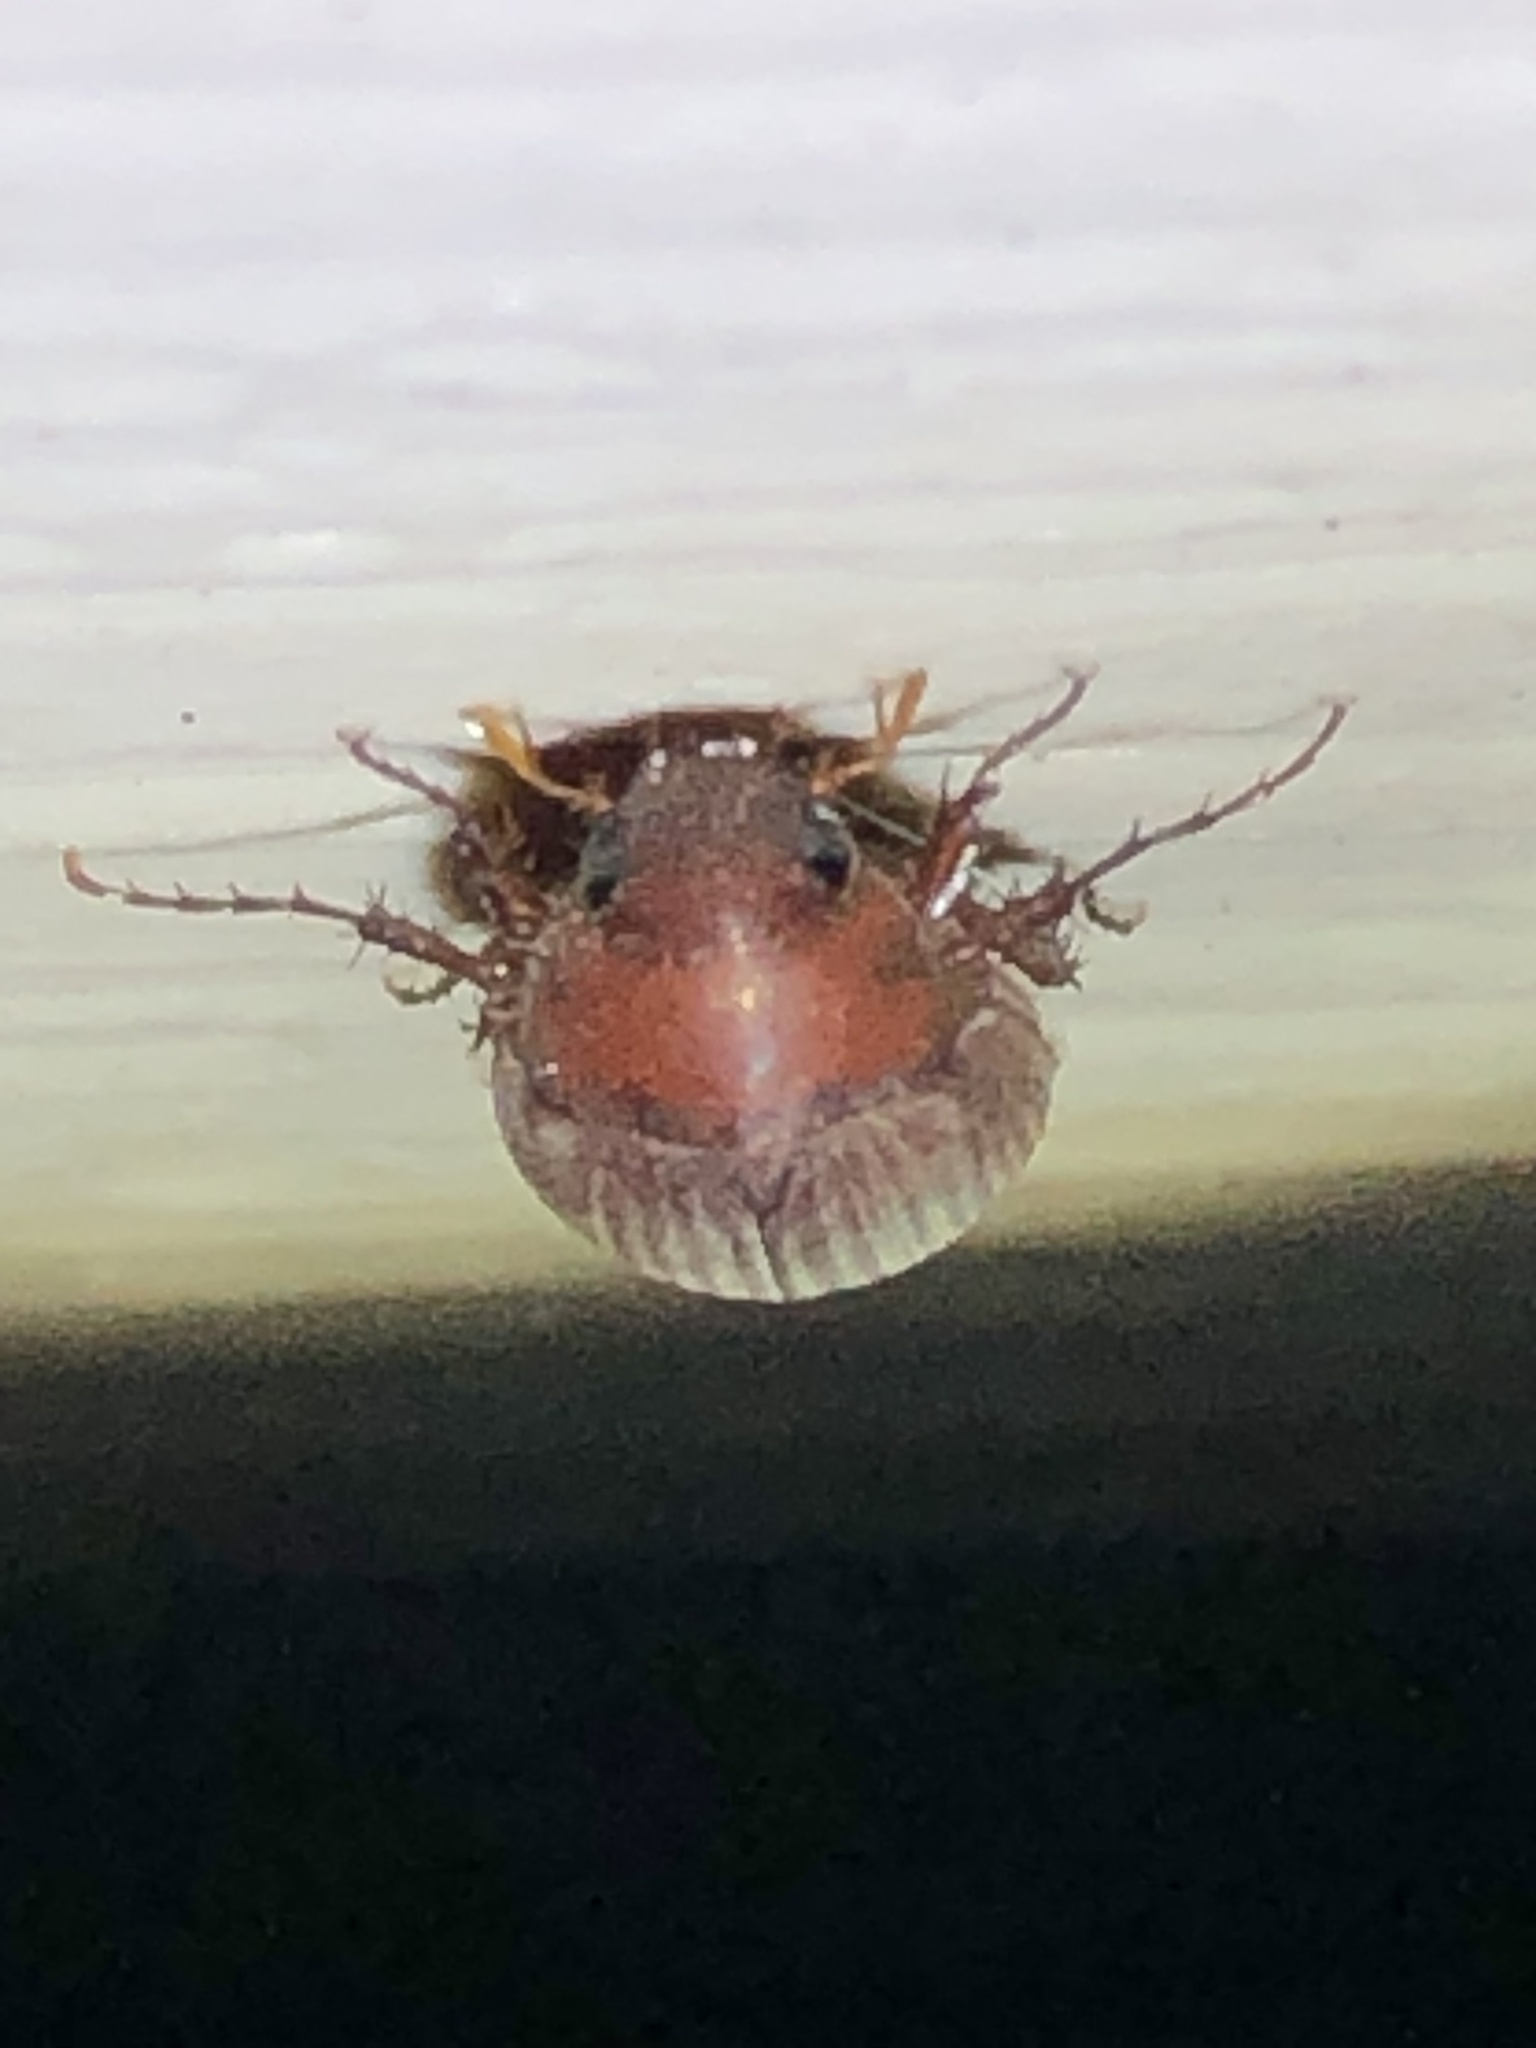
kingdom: Animalia
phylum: Arthropoda
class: Insecta
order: Coleoptera
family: Scarabaeidae
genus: Maladera
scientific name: Maladera formosae
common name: Asiatic garden beetle
